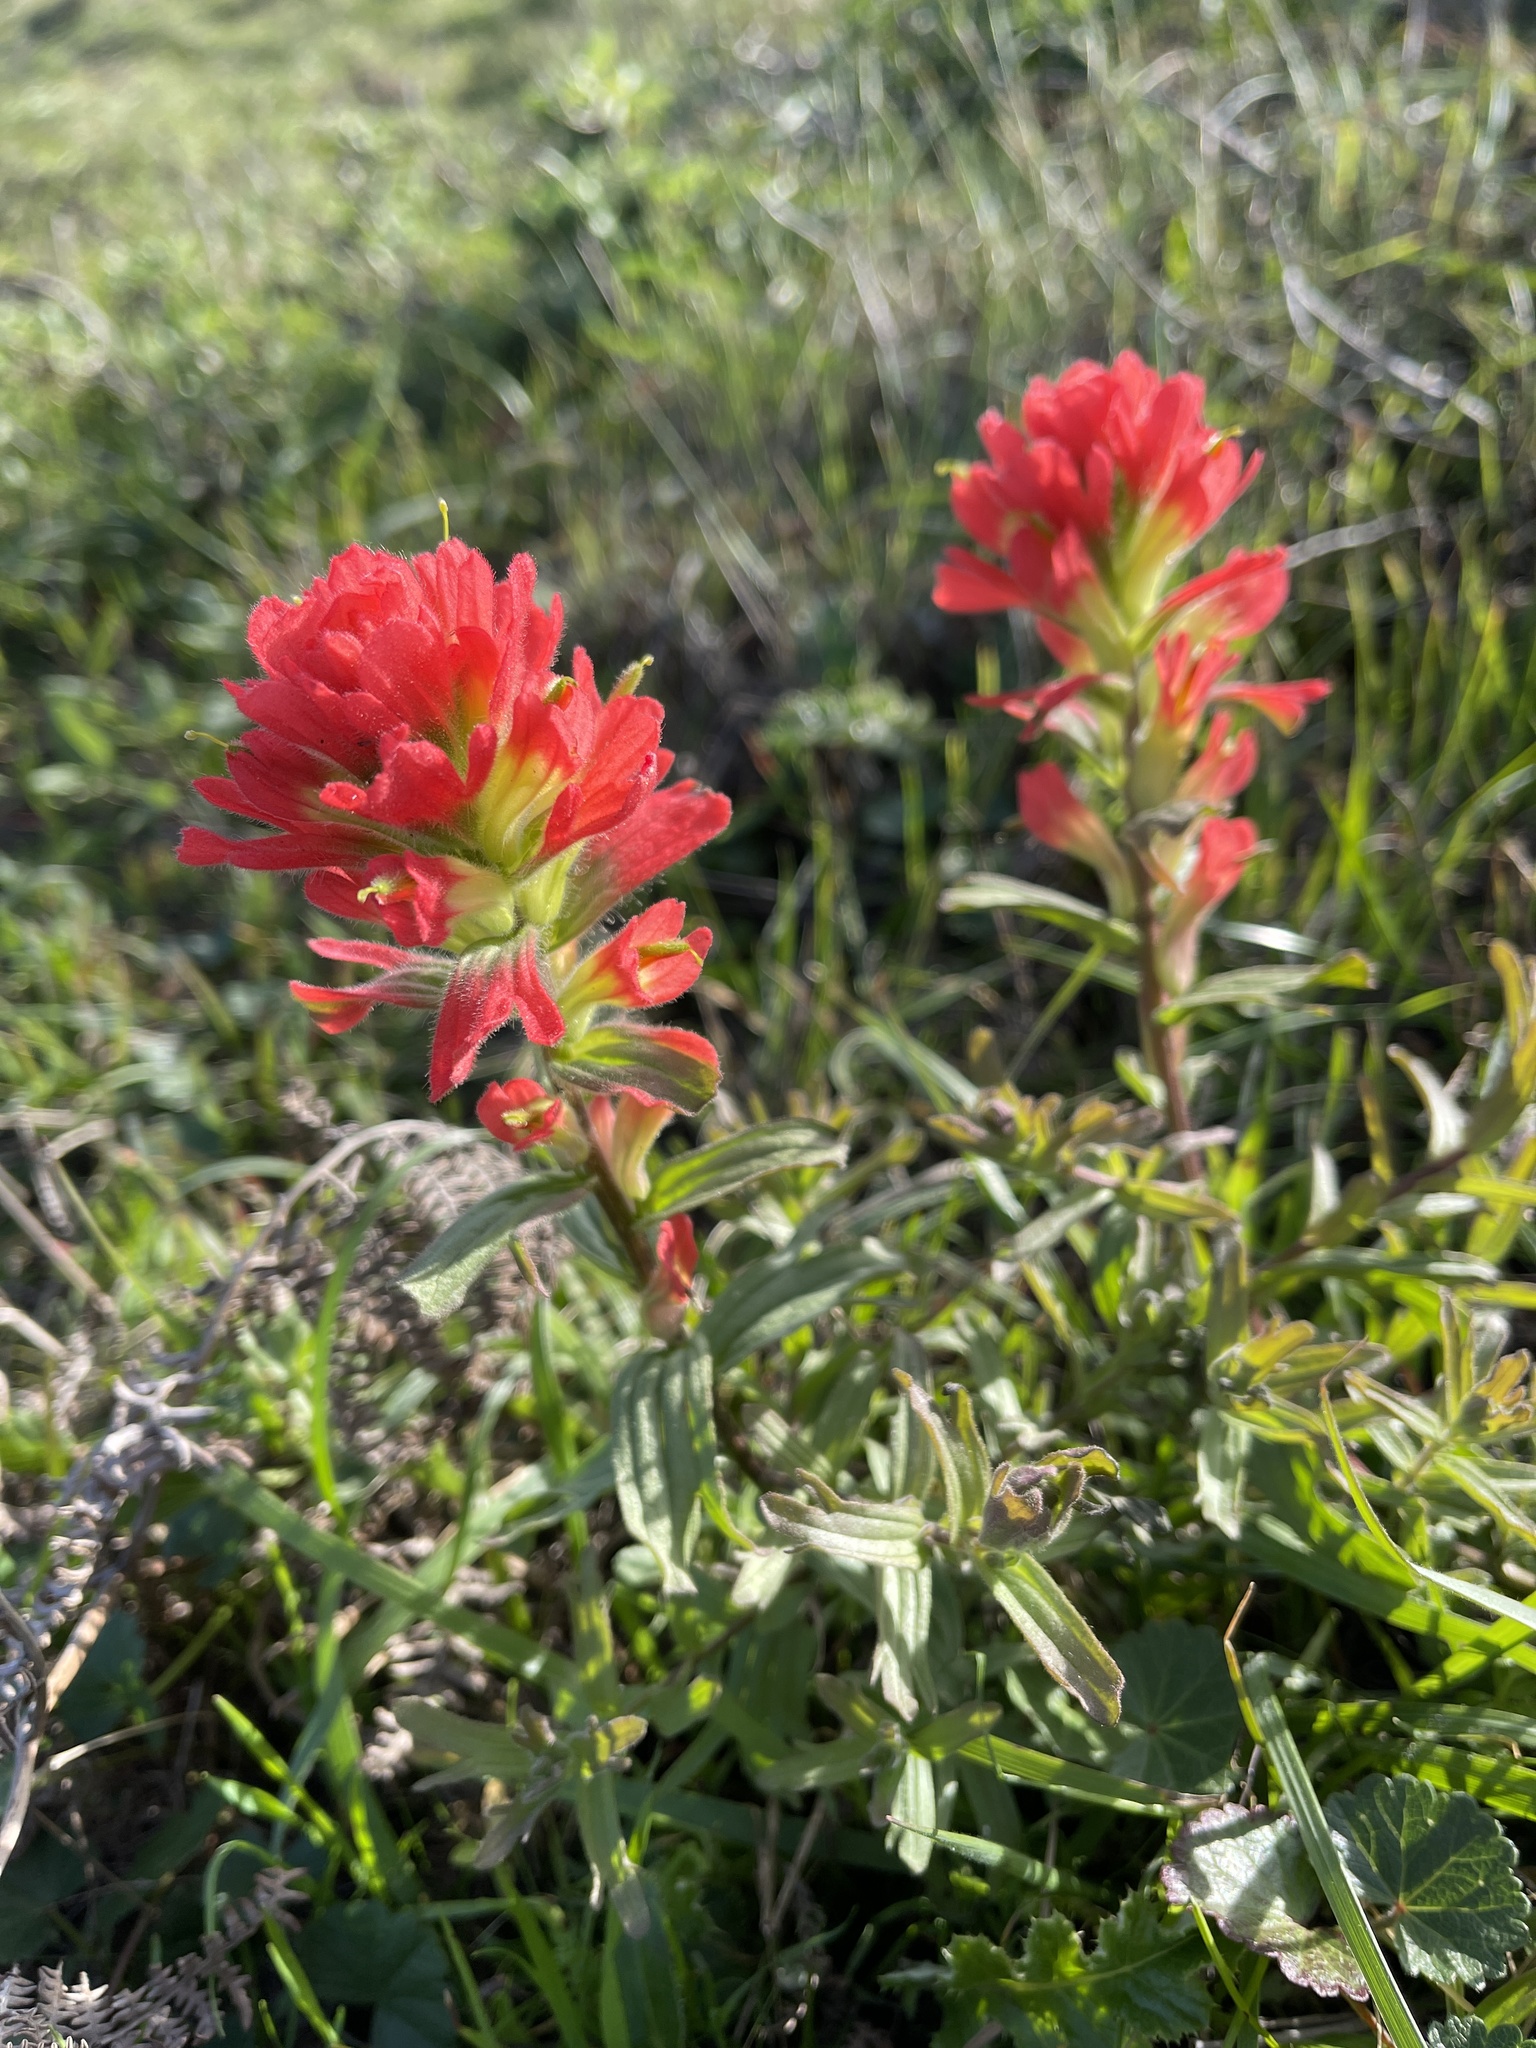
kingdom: Plantae
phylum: Tracheophyta
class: Magnoliopsida
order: Lamiales
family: Orobanchaceae
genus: Castilleja
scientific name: Castilleja affinis
